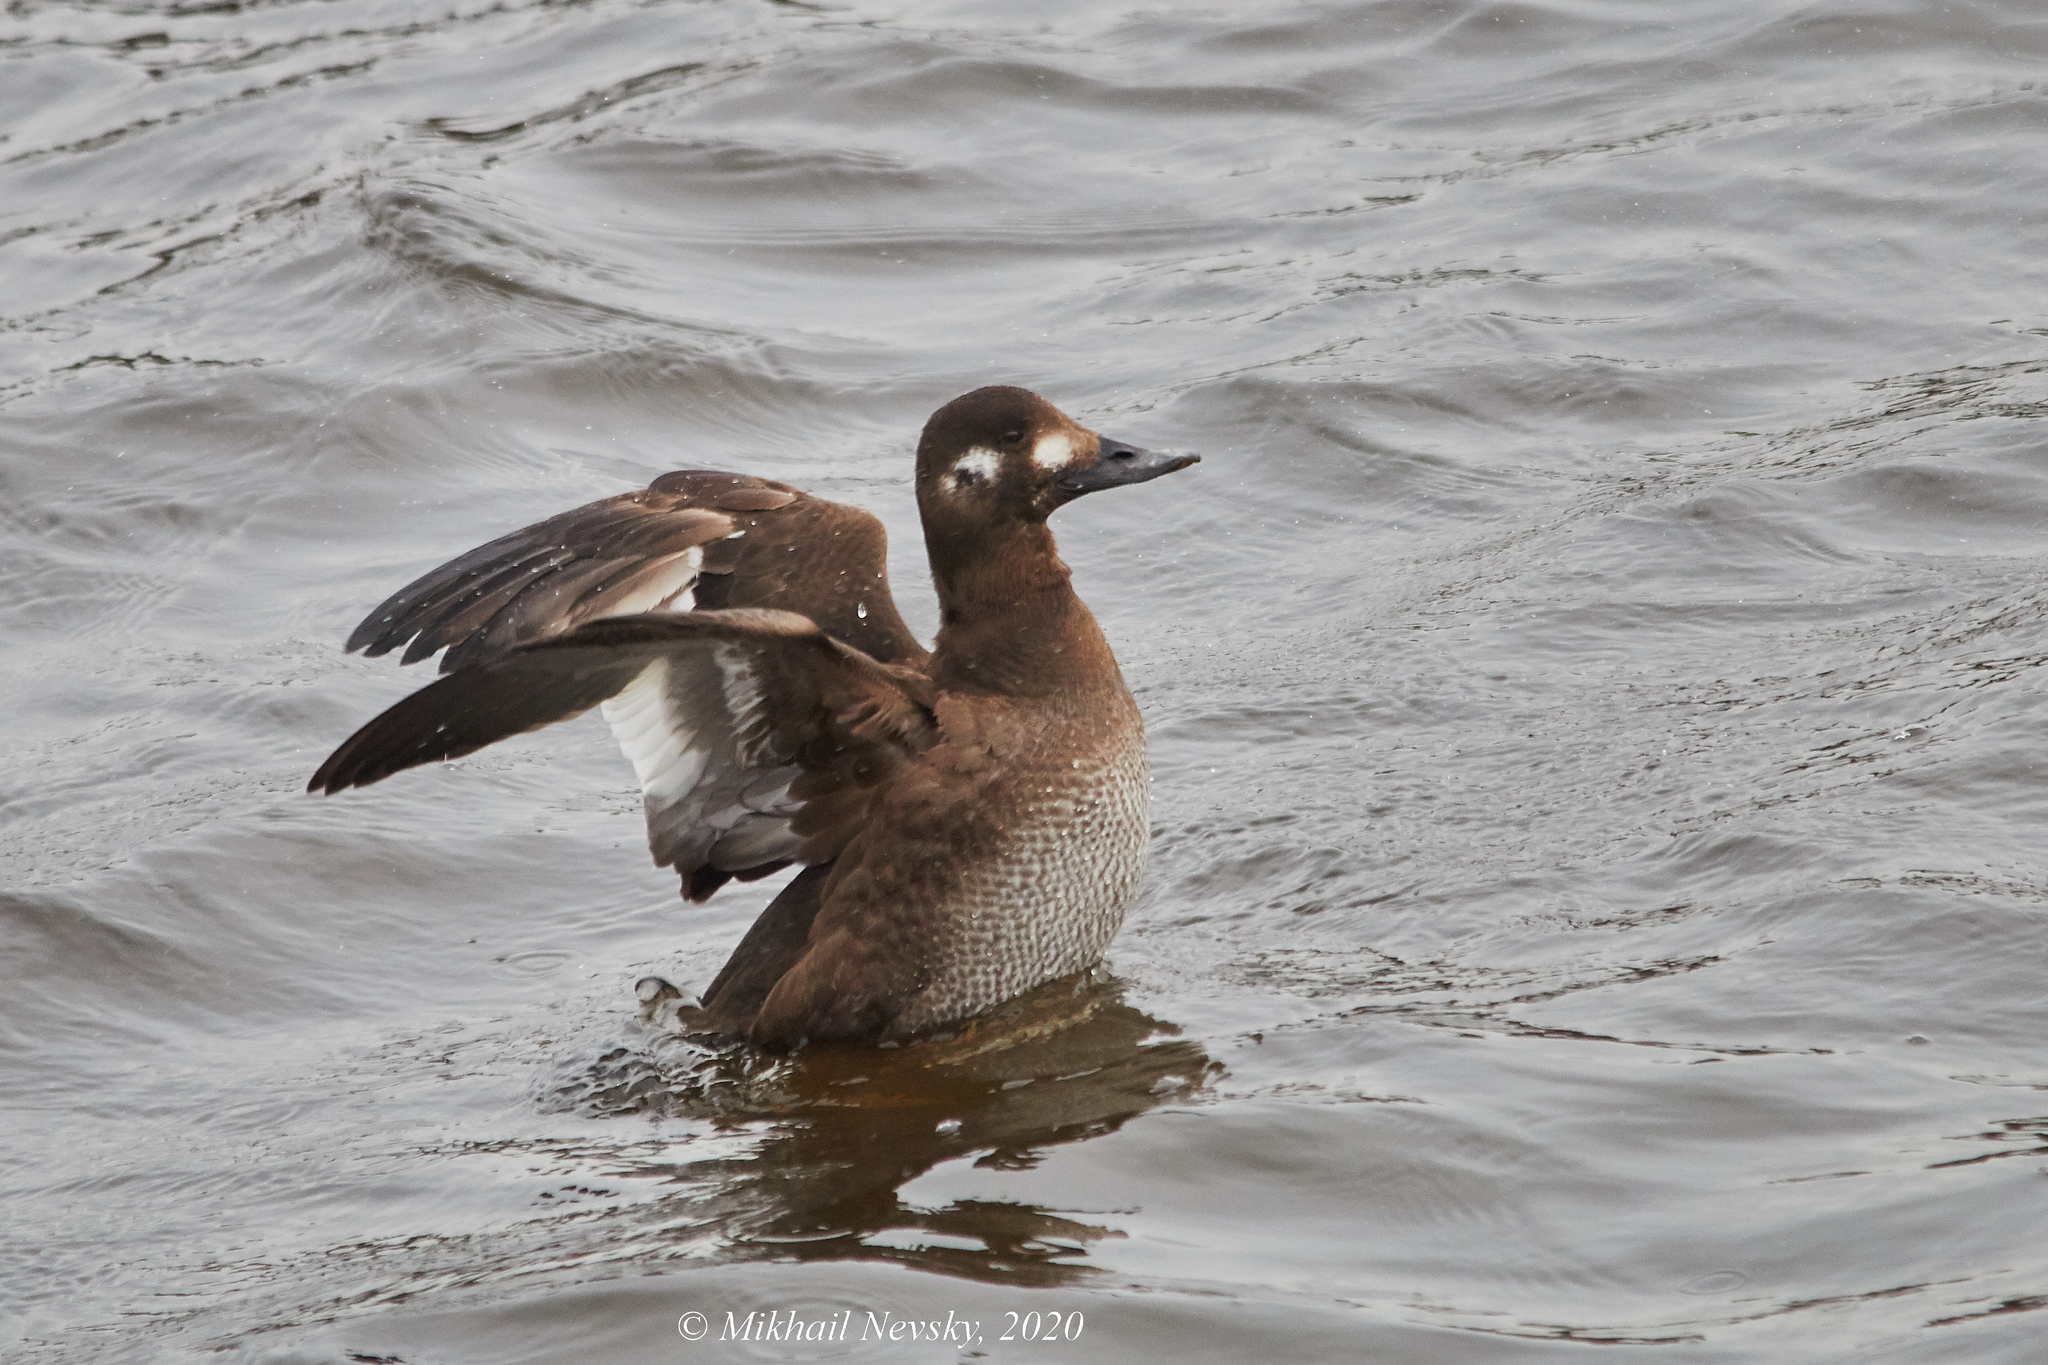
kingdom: Animalia
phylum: Chordata
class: Aves
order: Anseriformes
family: Anatidae
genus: Melanitta
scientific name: Melanitta fusca
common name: Velvet scoter
